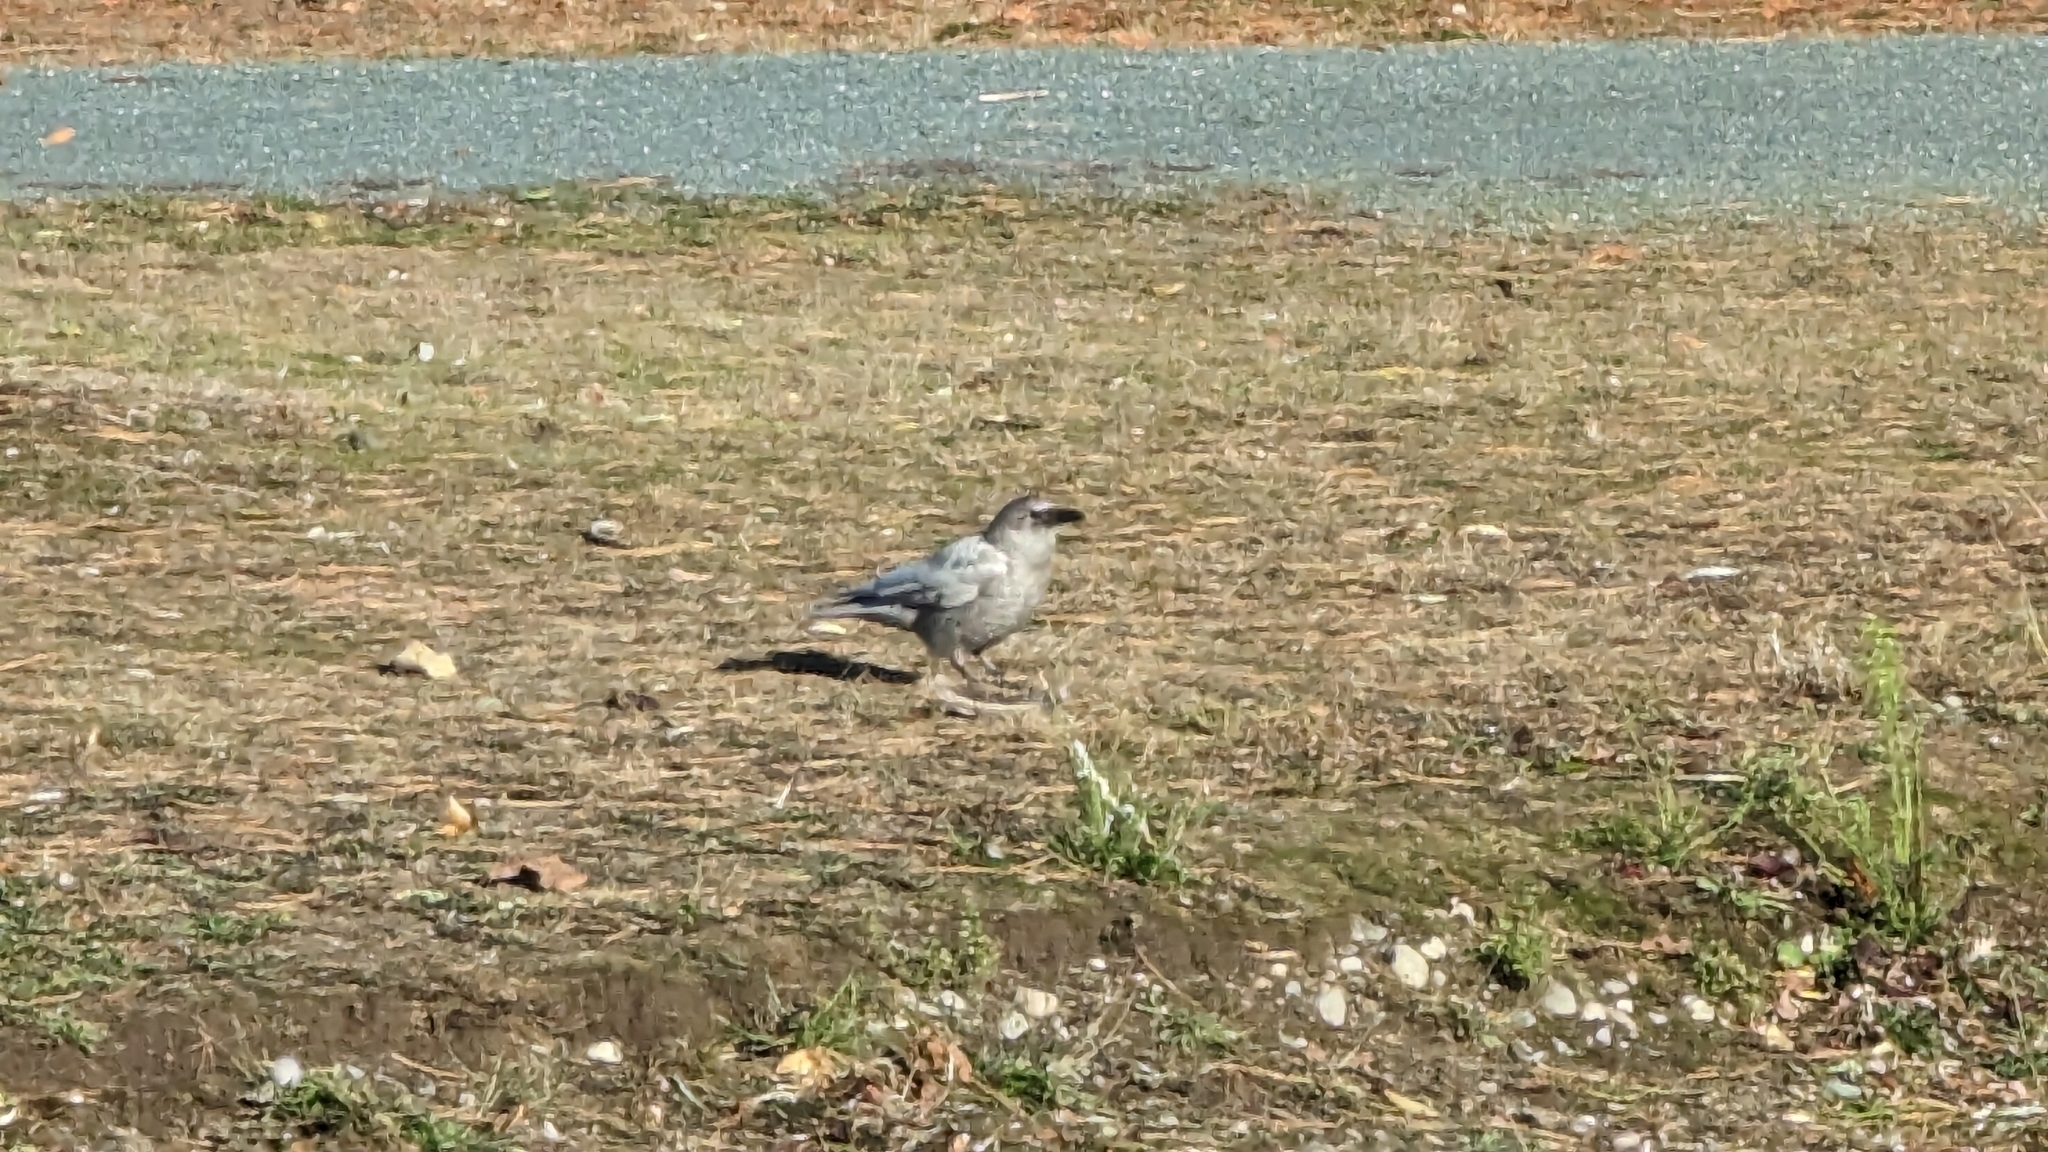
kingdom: Animalia
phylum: Chordata
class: Aves
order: Passeriformes
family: Corvidae
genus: Corvus
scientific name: Corvus brachyrhynchos
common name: American crow
